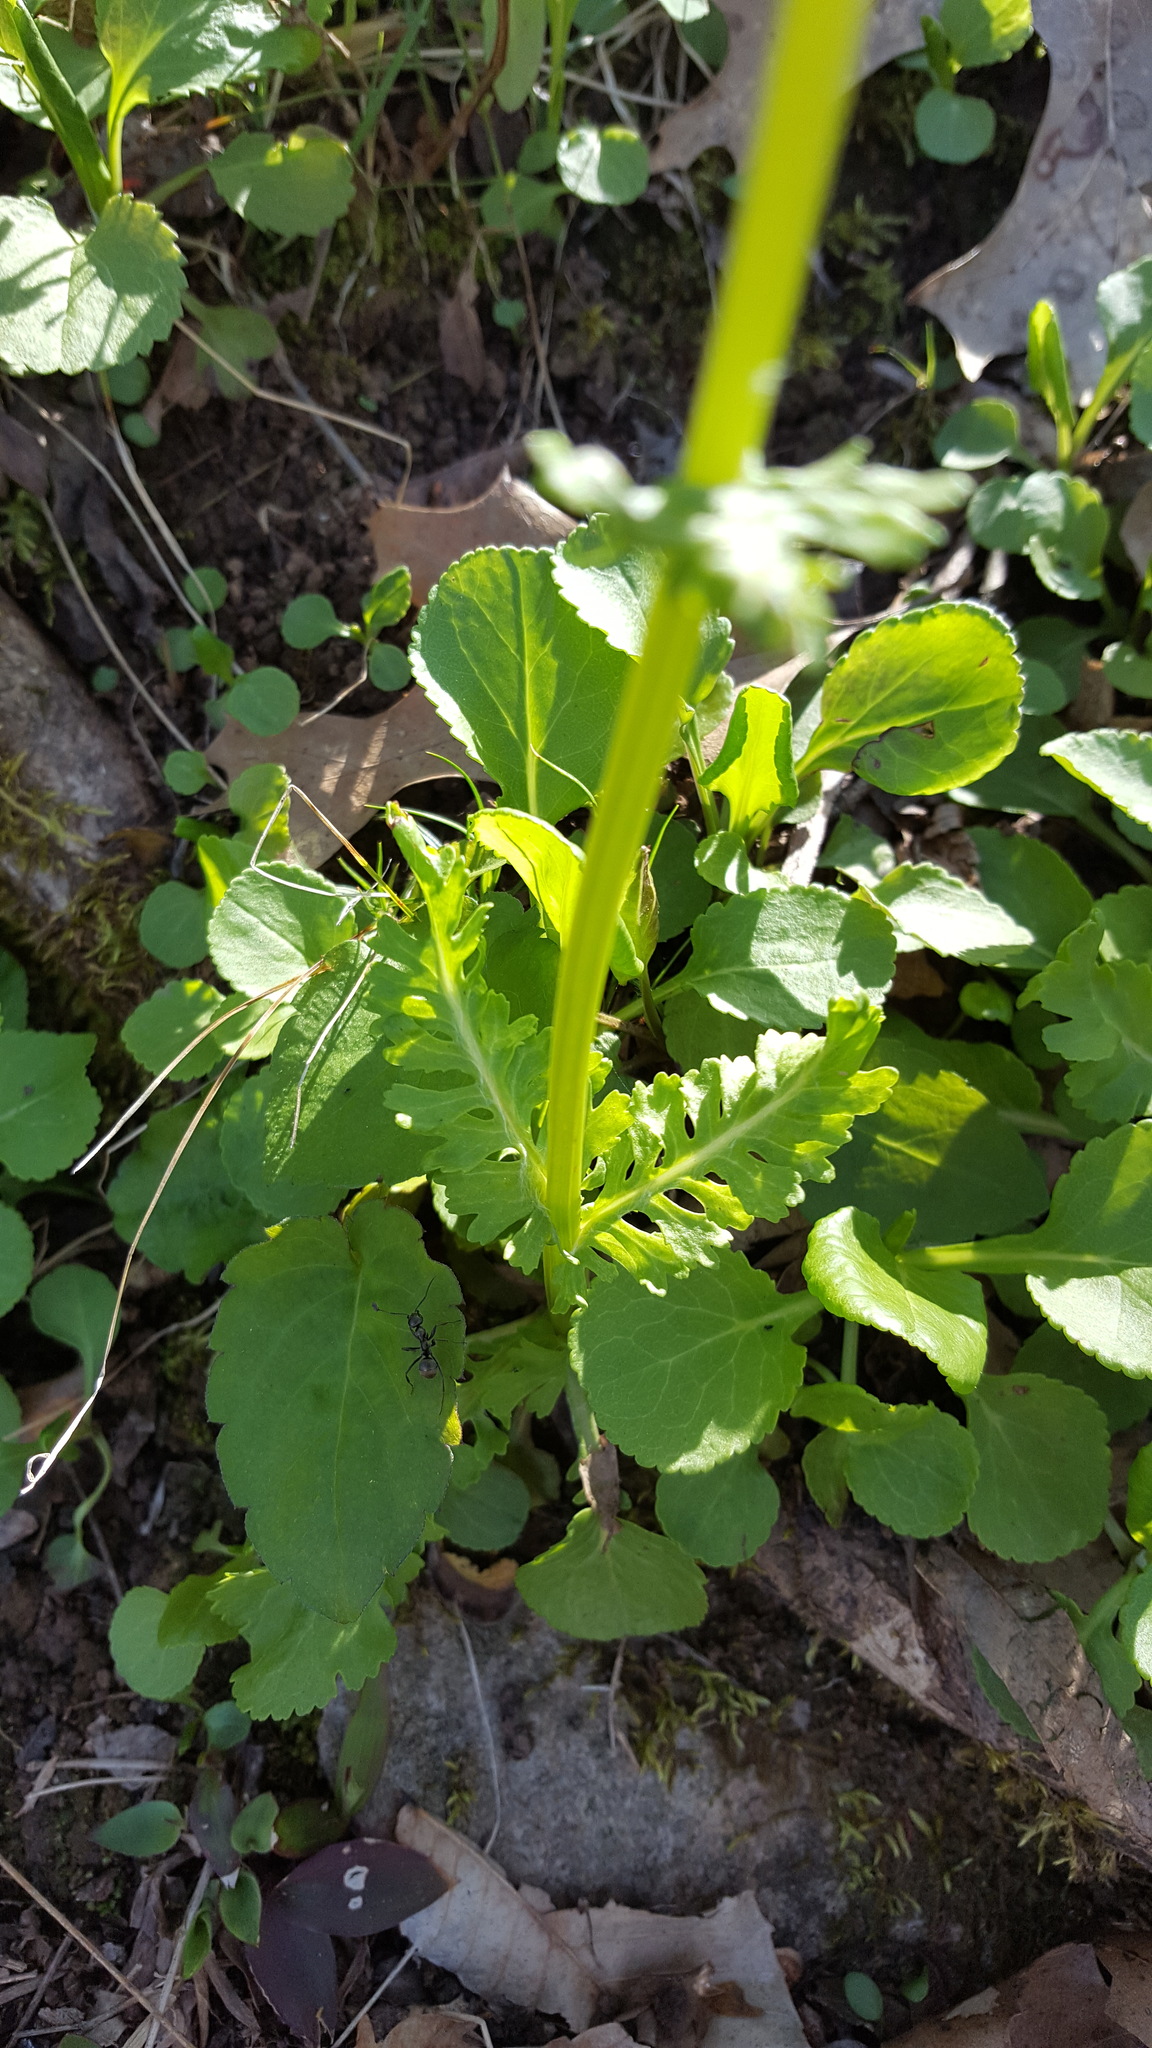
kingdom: Plantae
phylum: Tracheophyta
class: Magnoliopsida
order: Asterales
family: Asteraceae
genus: Packera
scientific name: Packera glabella
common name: Butterweed
